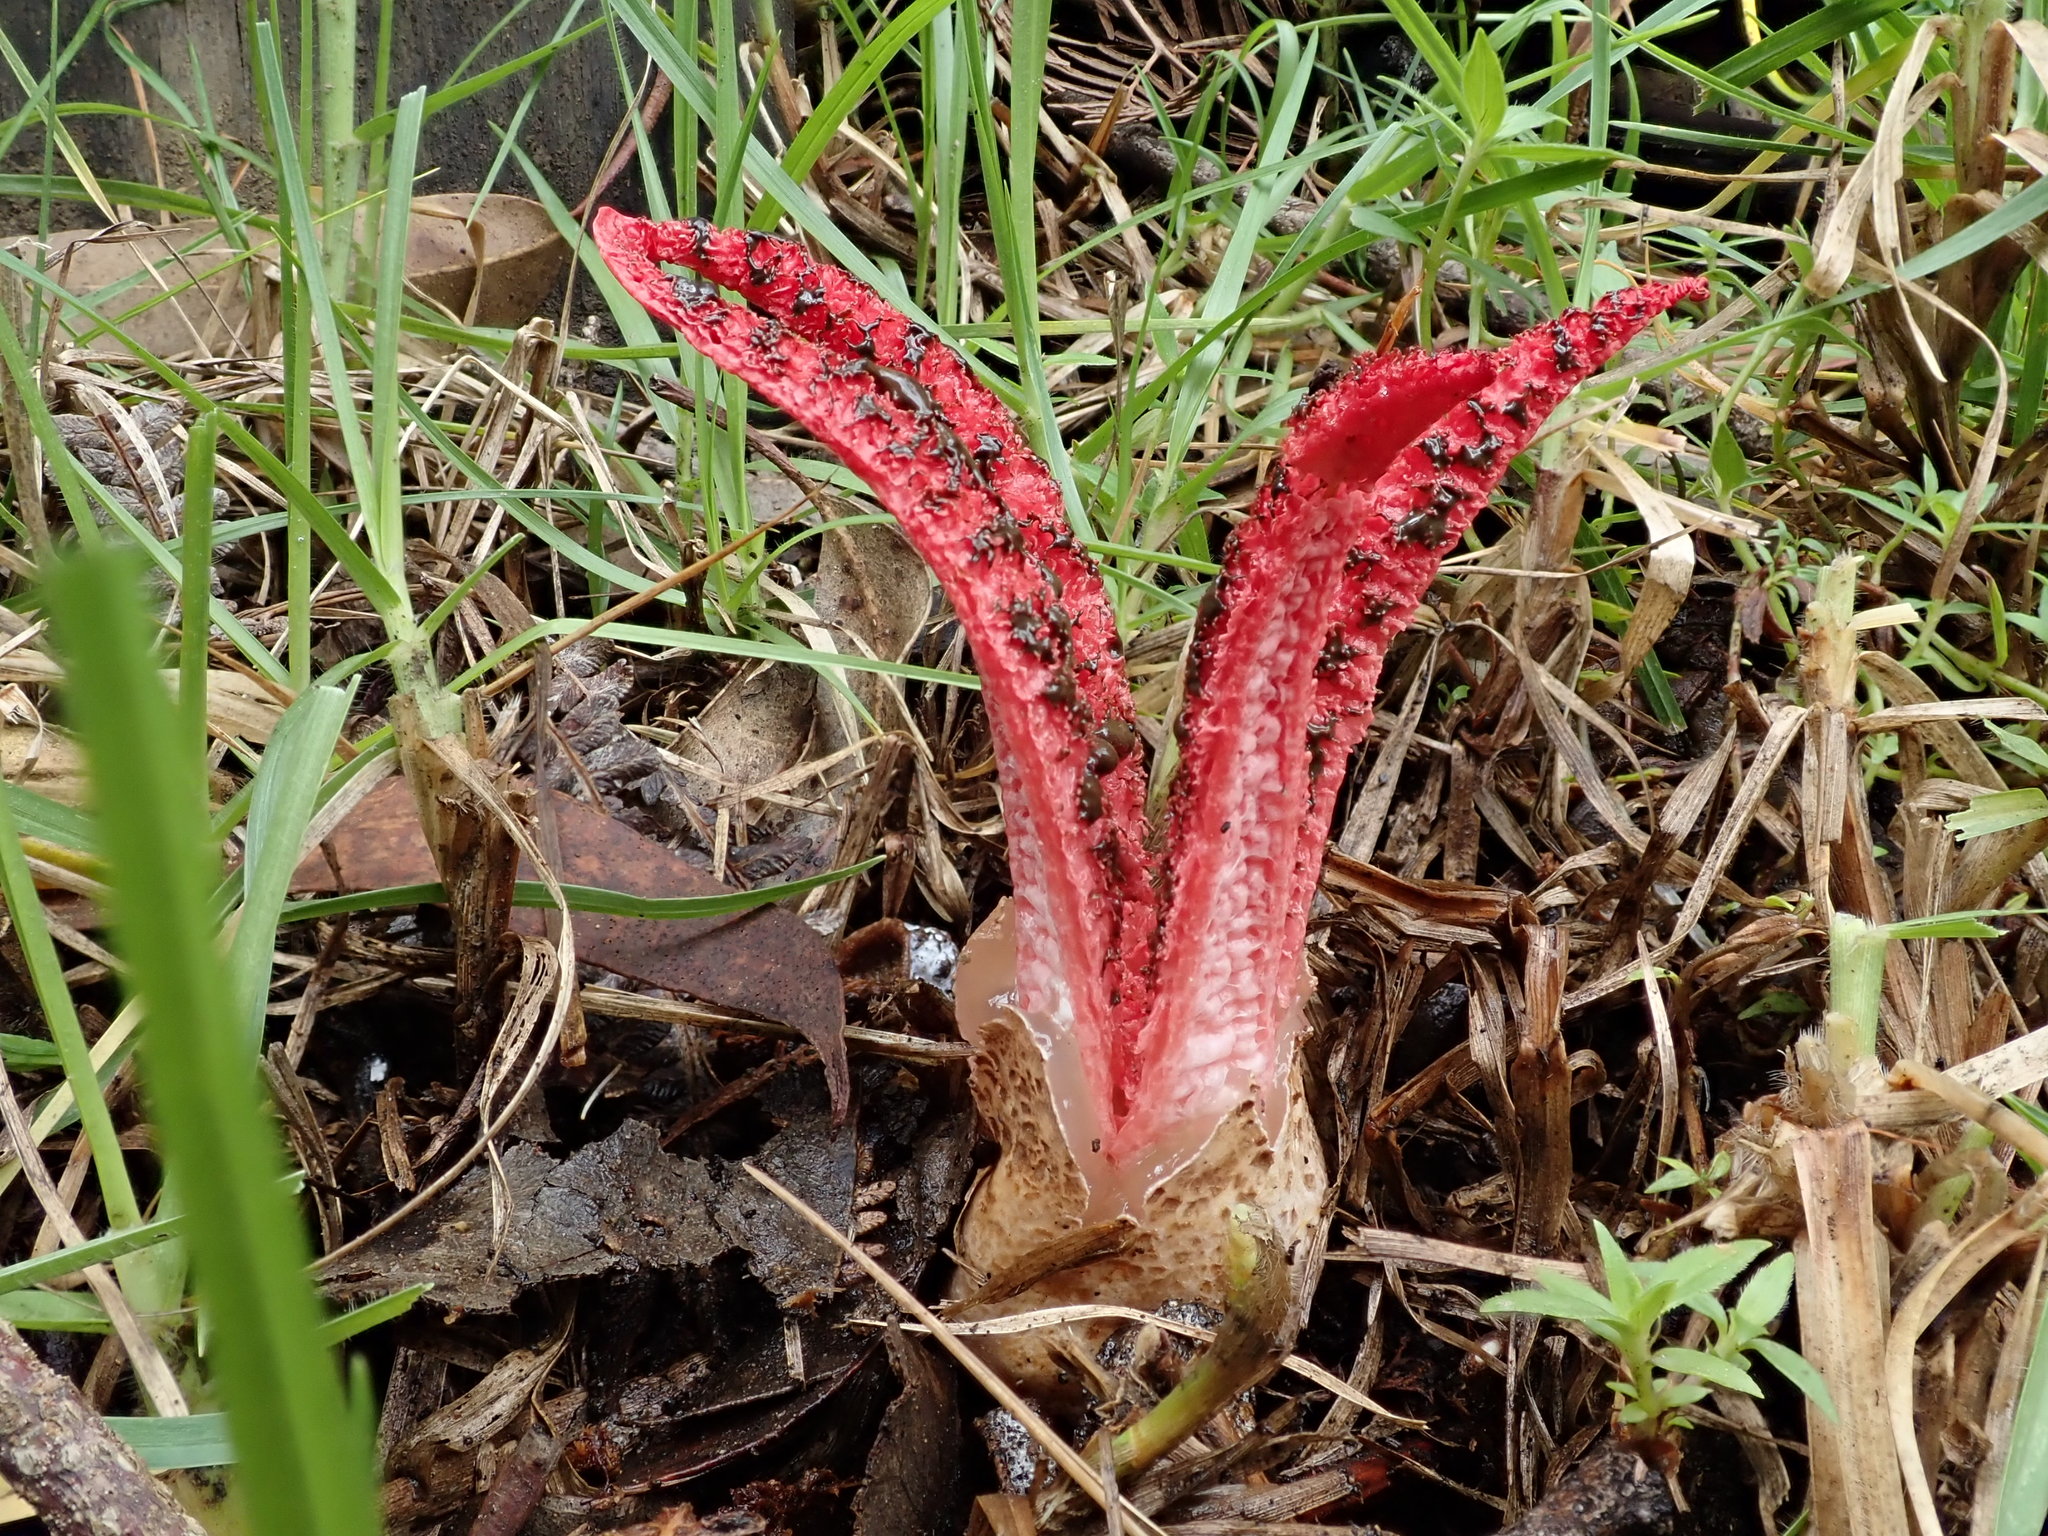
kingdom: Fungi
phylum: Basidiomycota
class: Agaricomycetes
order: Phallales
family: Phallaceae
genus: Clathrus
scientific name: Clathrus archeri
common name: Devil's fingers
